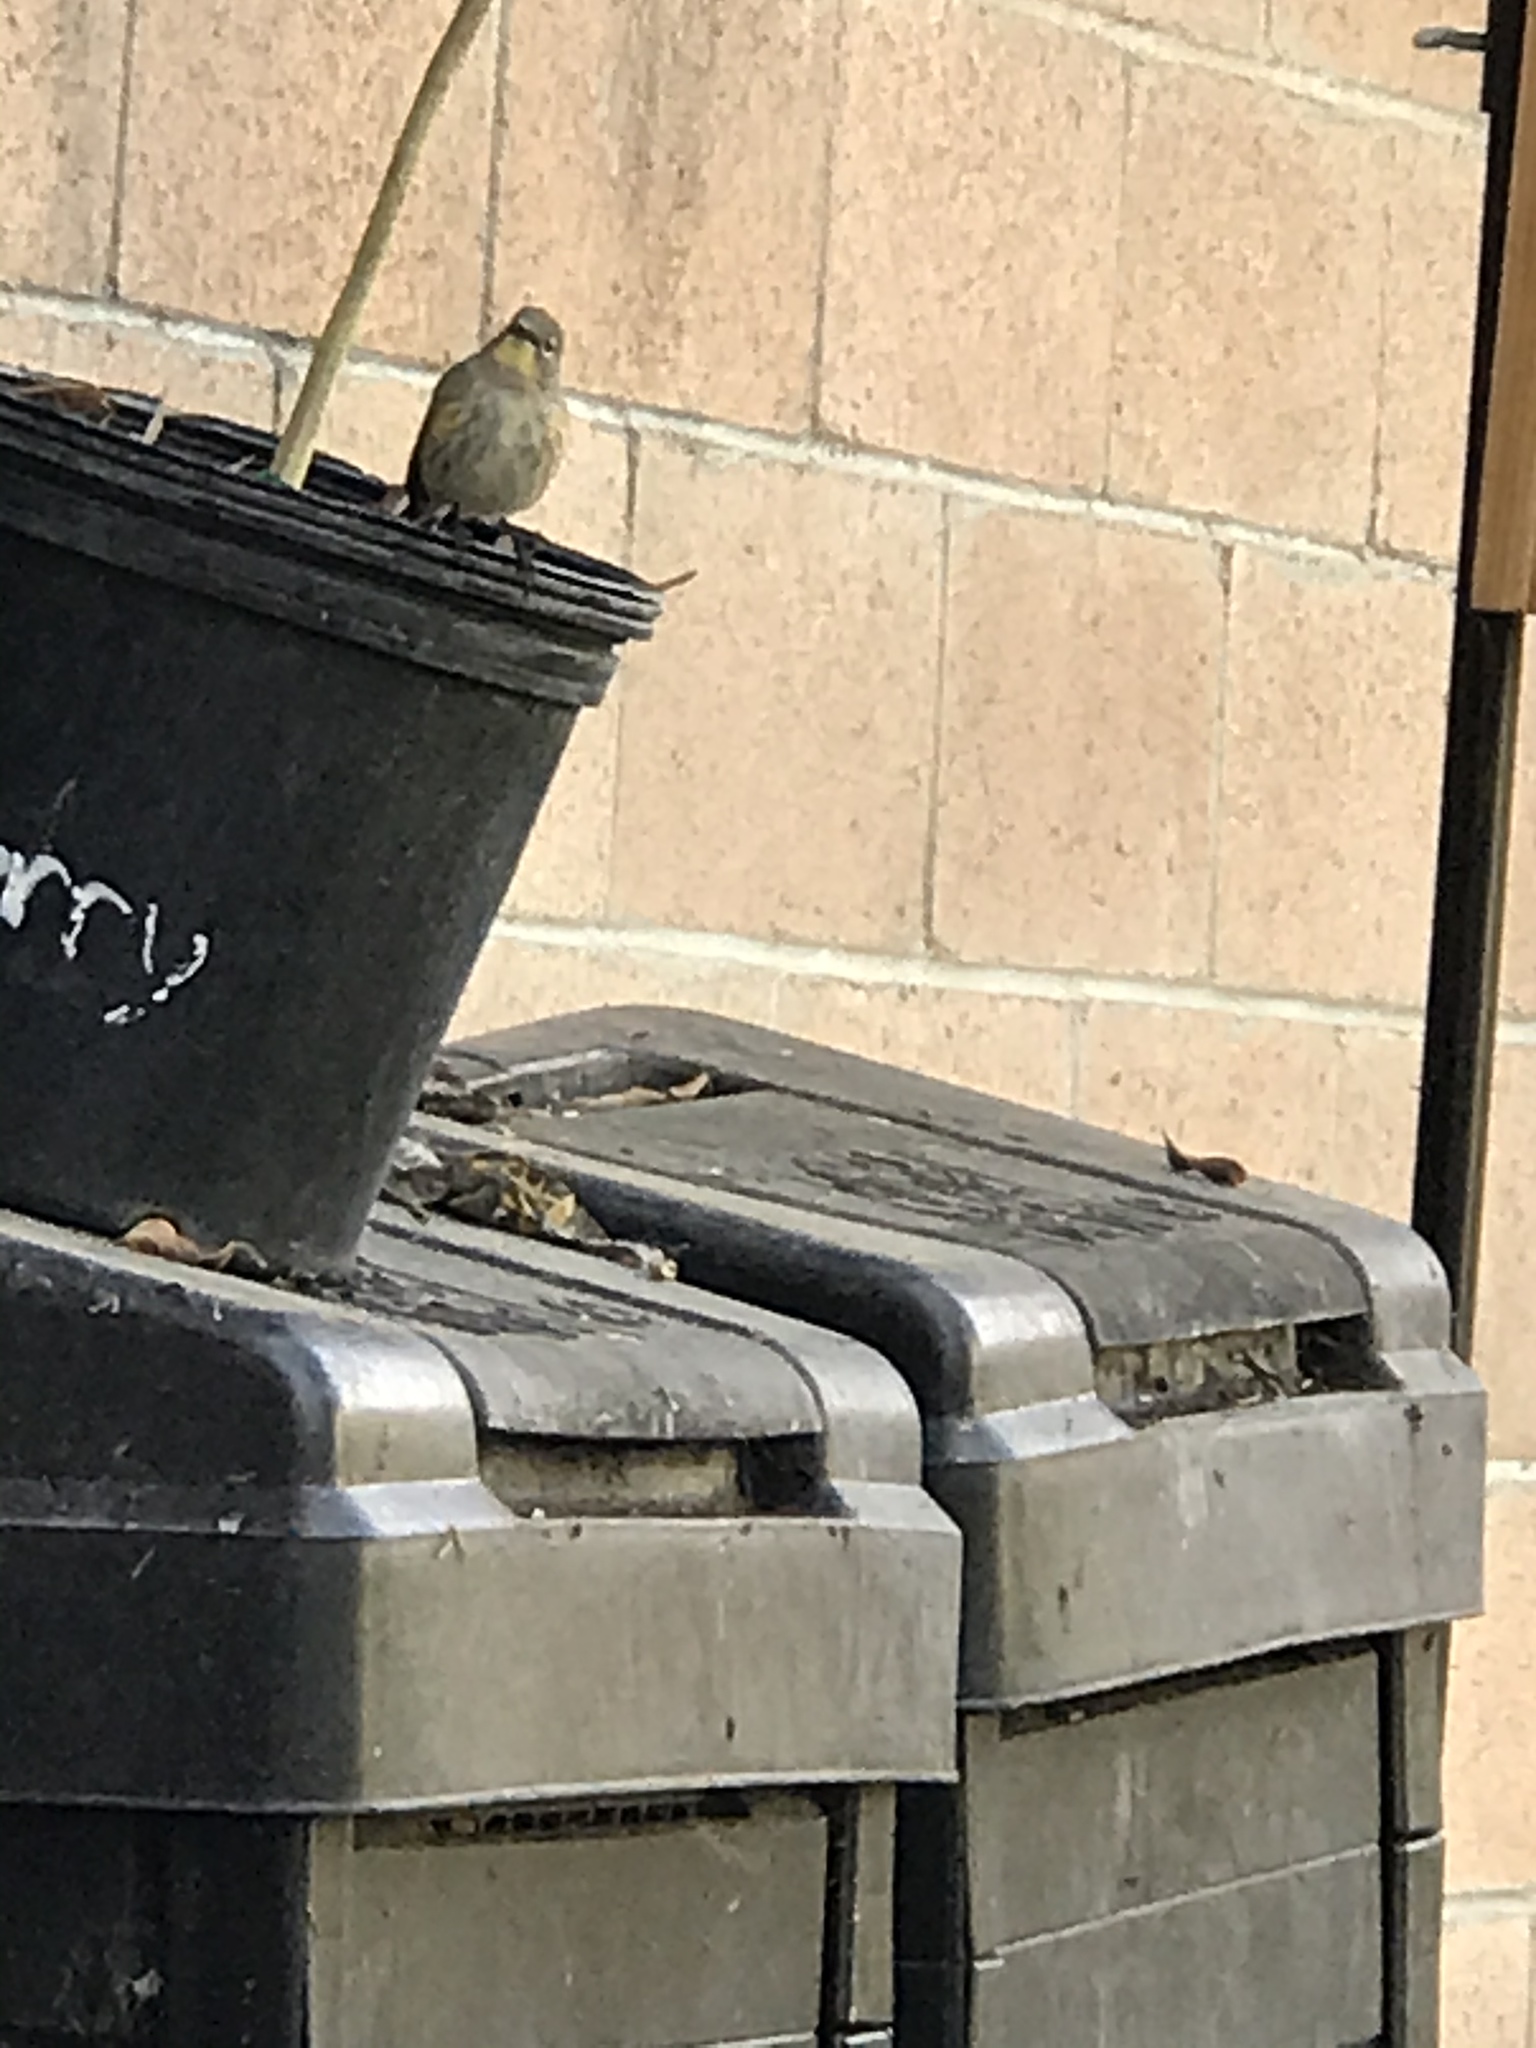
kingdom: Animalia
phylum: Chordata
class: Aves
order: Passeriformes
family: Parulidae
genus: Setophaga
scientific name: Setophaga auduboni
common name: Audubon's warbler
